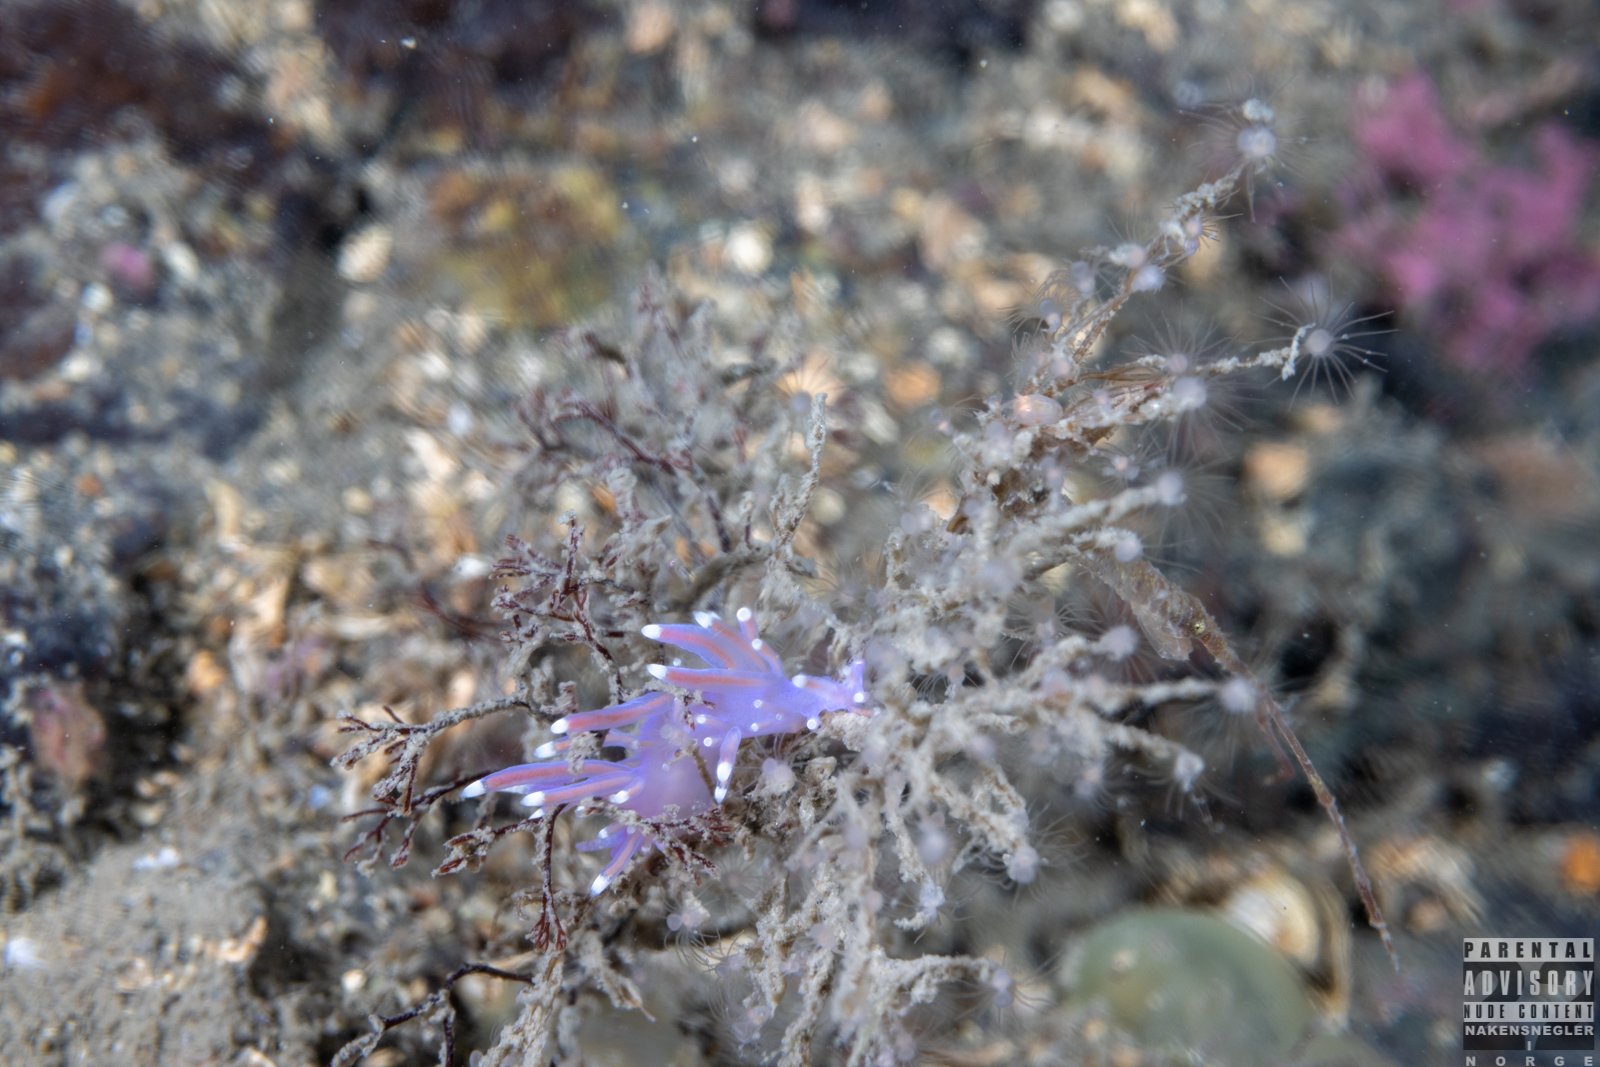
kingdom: Animalia
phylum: Mollusca
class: Gastropoda
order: Nudibranchia
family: Flabellinidae
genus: Edmundsella
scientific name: Edmundsella pedata
